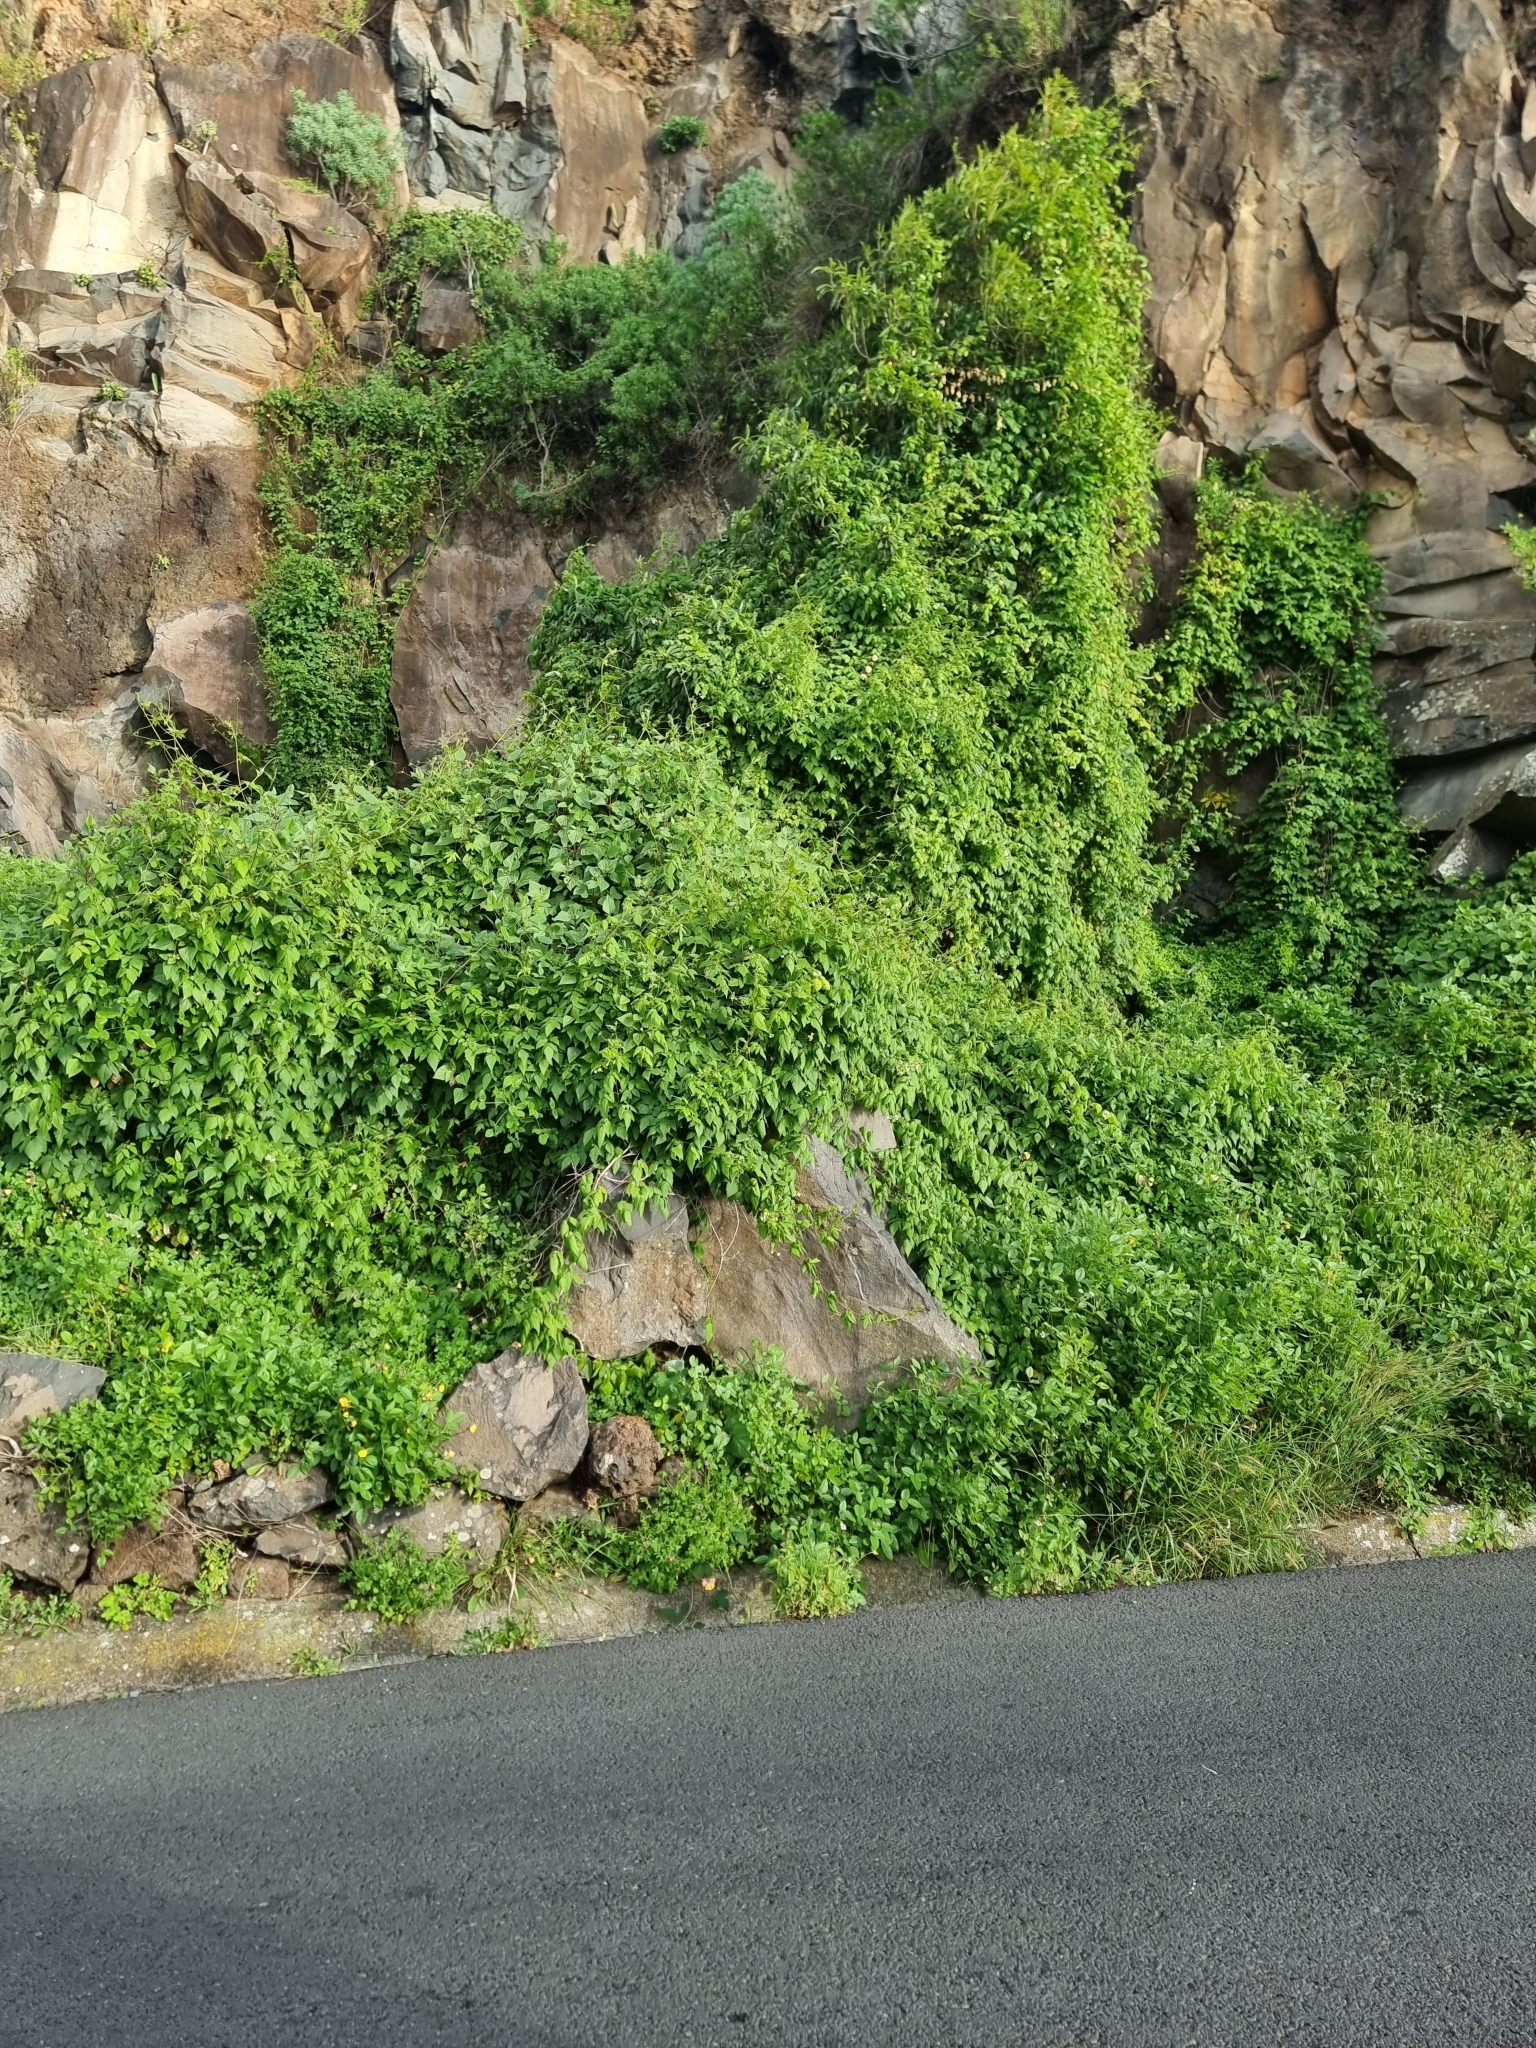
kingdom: Plantae
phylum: Tracheophyta
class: Magnoliopsida
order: Sapindales
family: Sapindaceae
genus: Cardiospermum
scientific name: Cardiospermum grandiflorum
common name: Balloon vine
